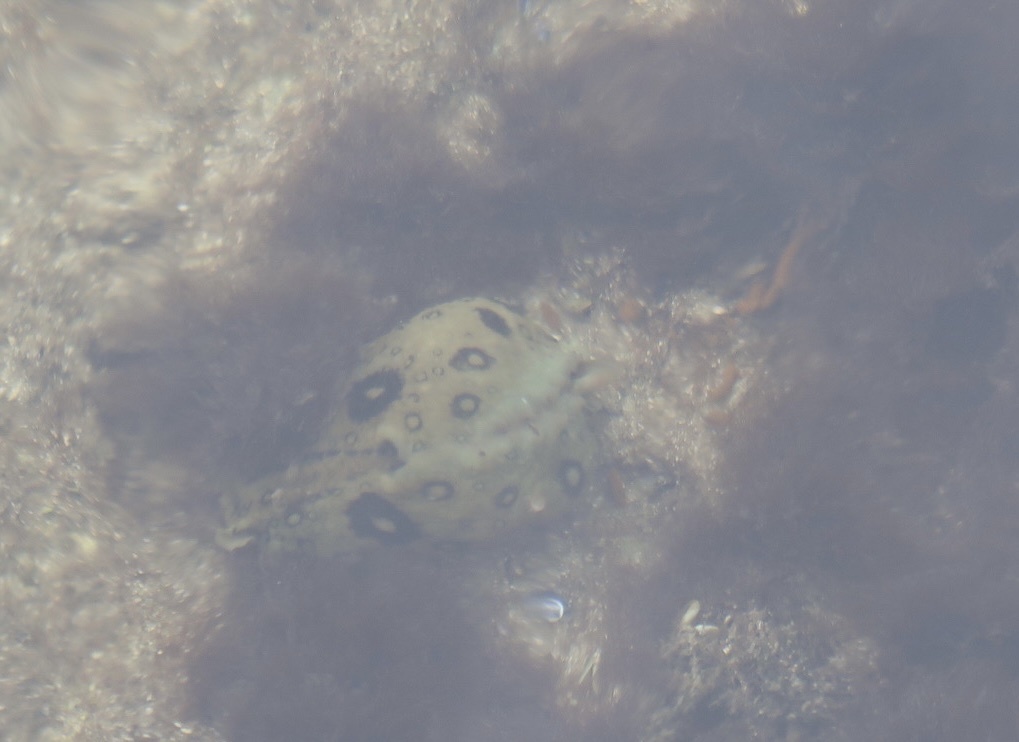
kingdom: Animalia
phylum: Mollusca
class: Gastropoda
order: Aplysiida
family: Aplysiidae
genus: Aplysia
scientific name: Aplysia dactylomela
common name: Large-spotted sea hare
